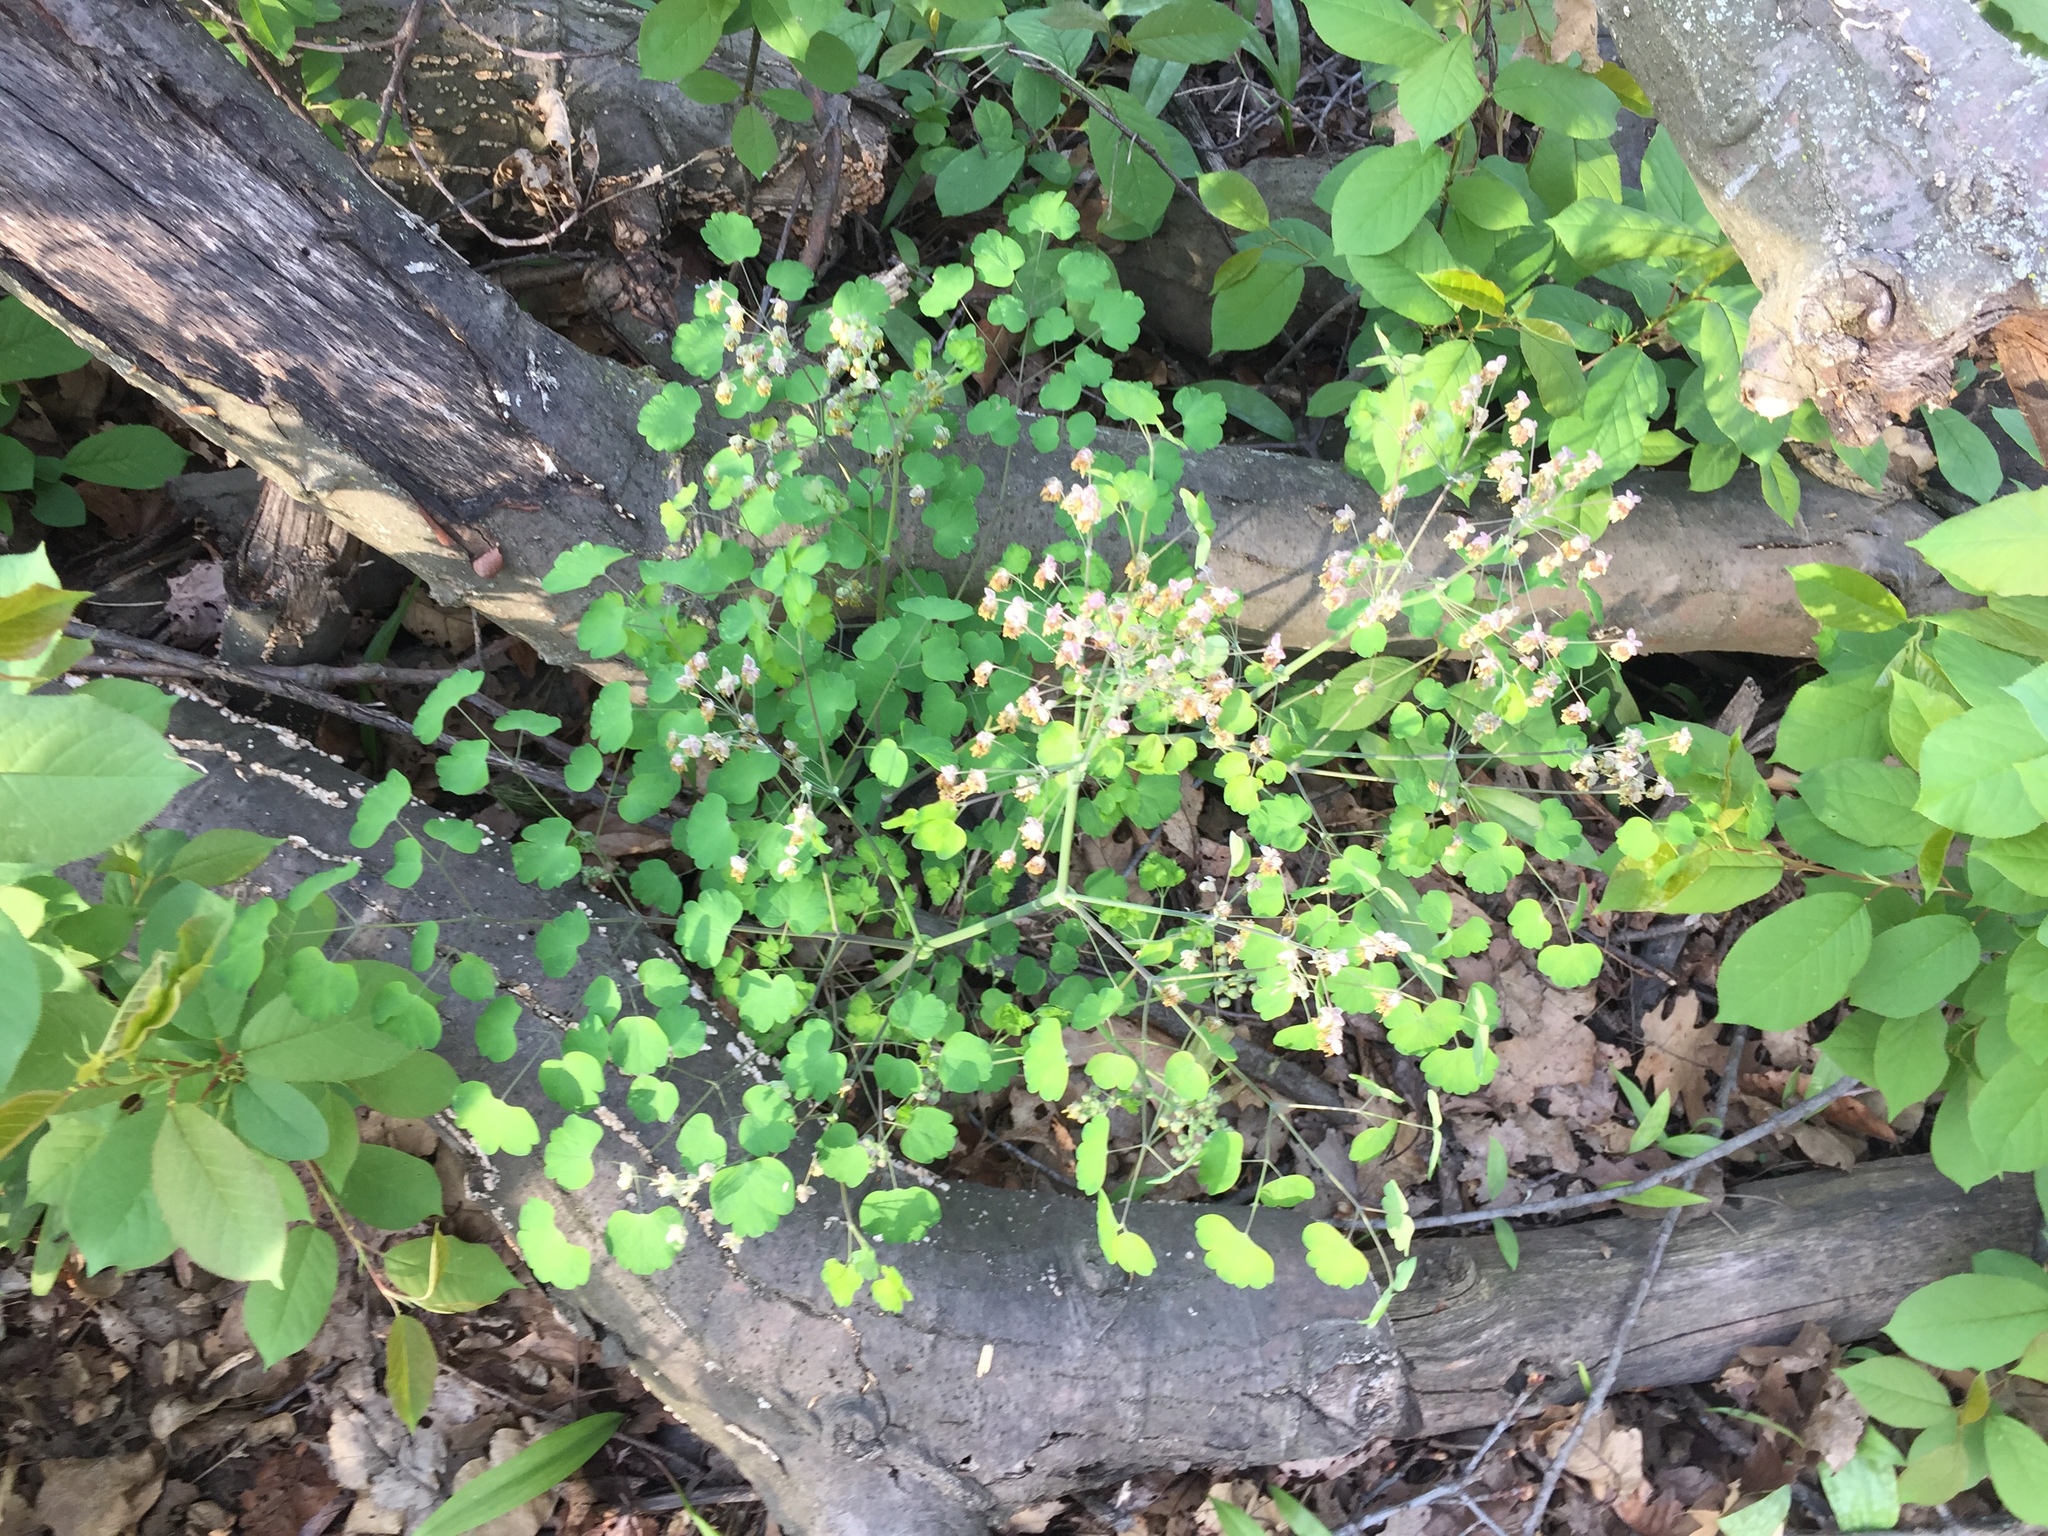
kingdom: Plantae
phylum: Tracheophyta
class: Magnoliopsida
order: Ranunculales
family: Ranunculaceae
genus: Thalictrum
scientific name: Thalictrum dioicum
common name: Early meadow-rue
